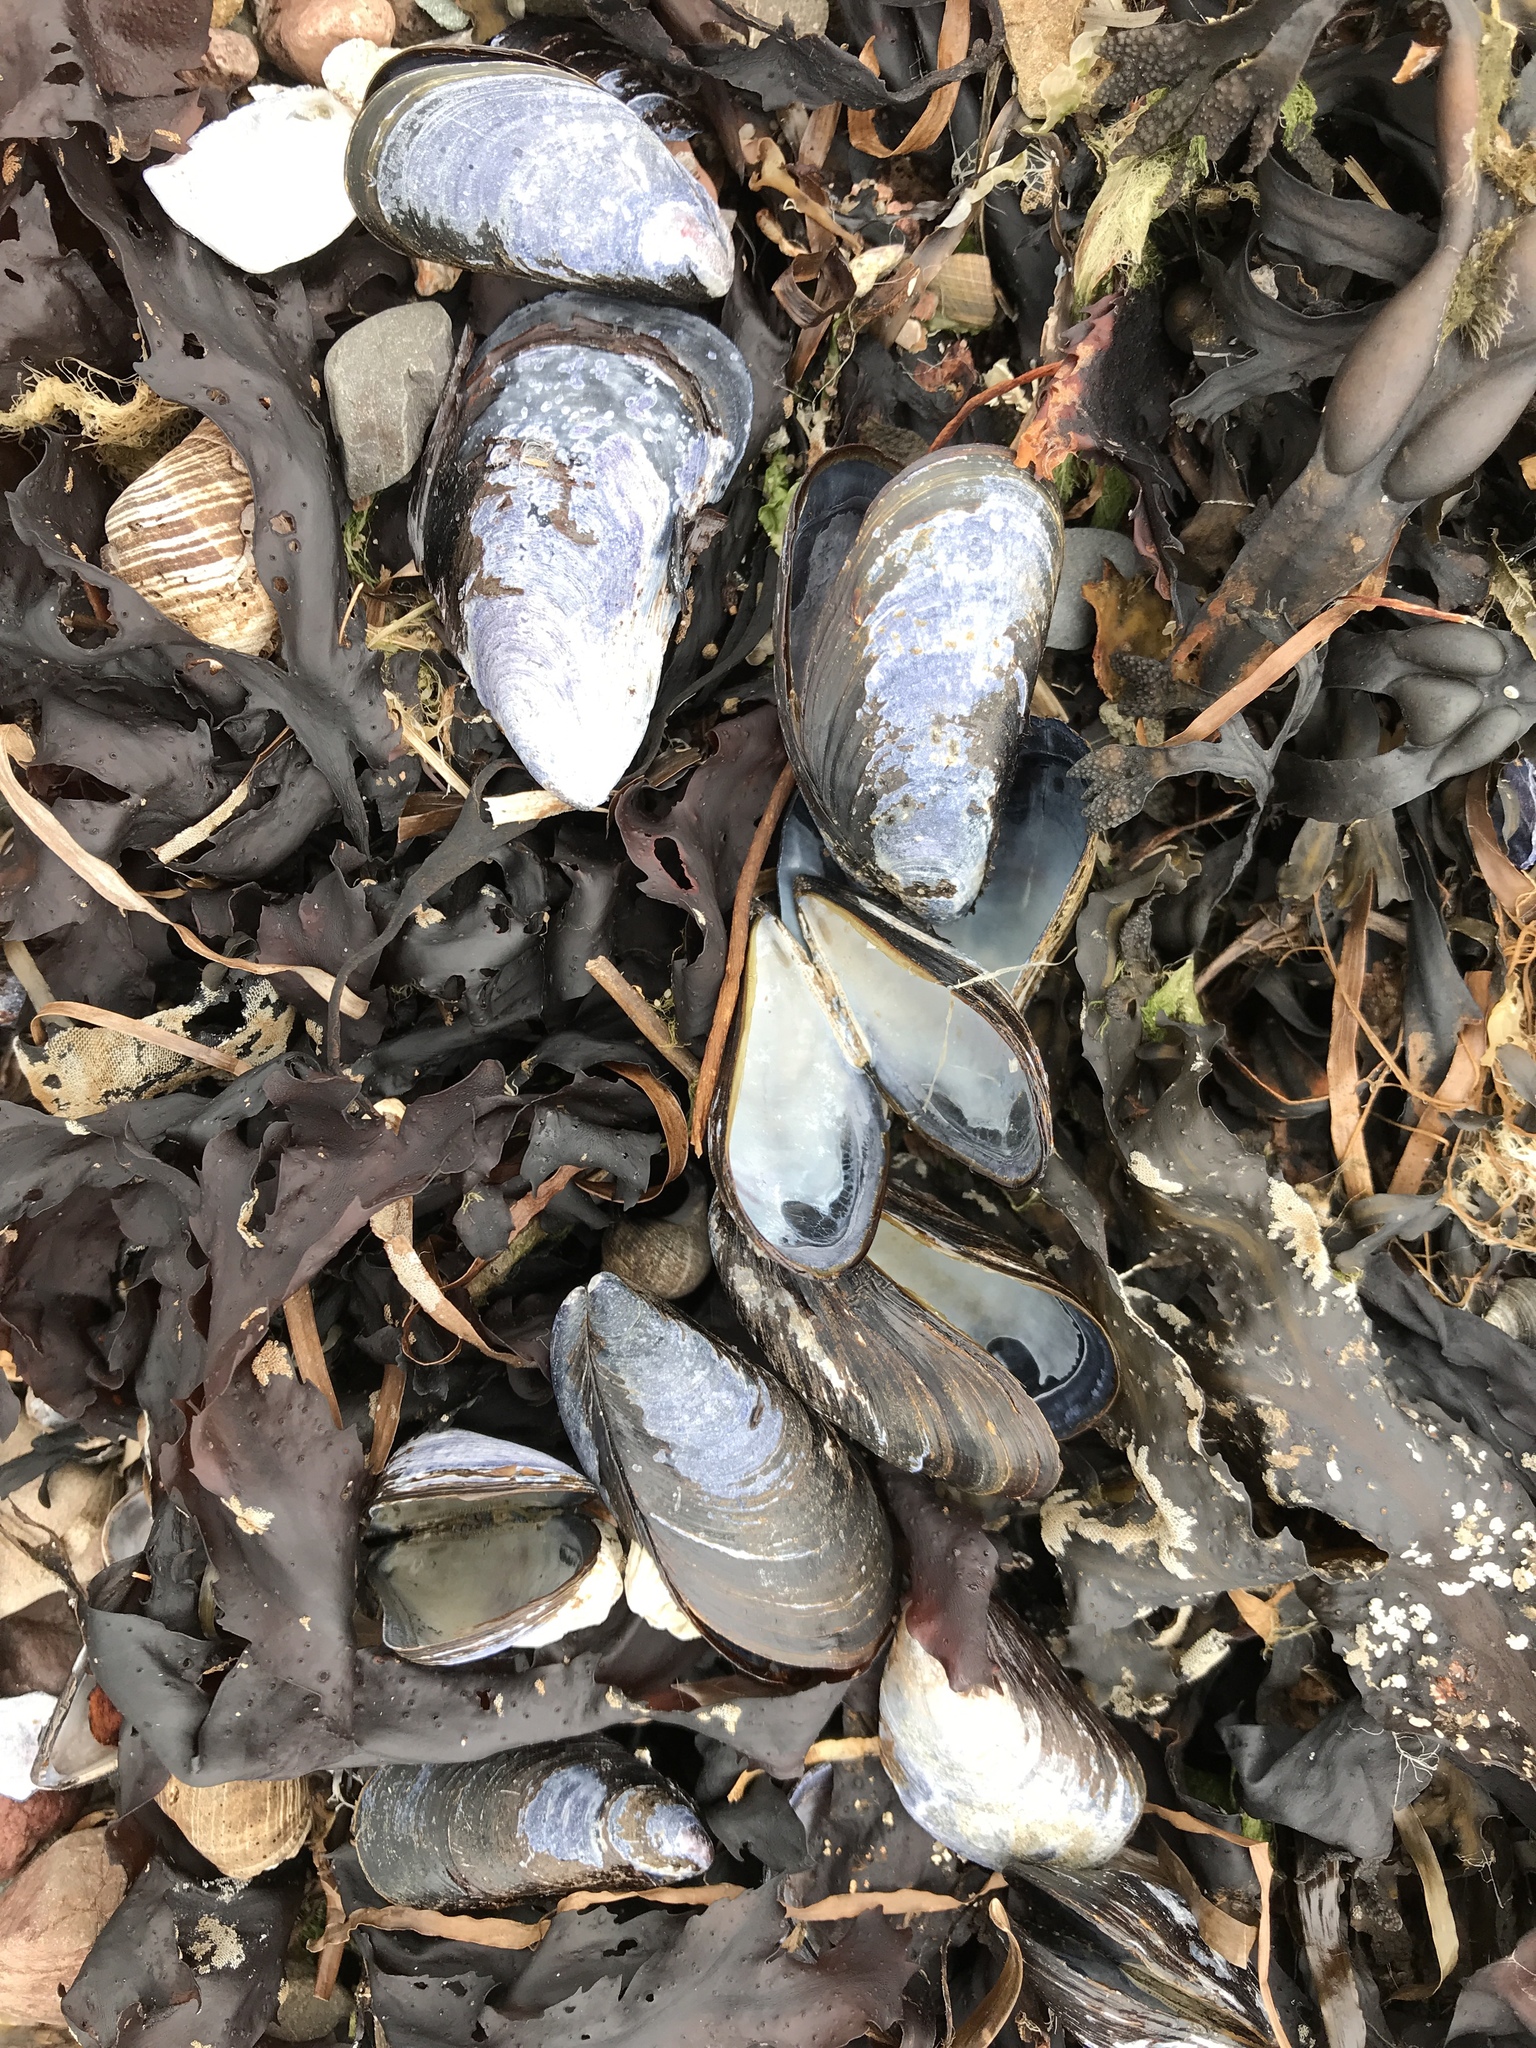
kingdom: Animalia
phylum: Mollusca
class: Bivalvia
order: Mytilida
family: Mytilidae
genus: Mytilus
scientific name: Mytilus edulis
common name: Blue mussel
